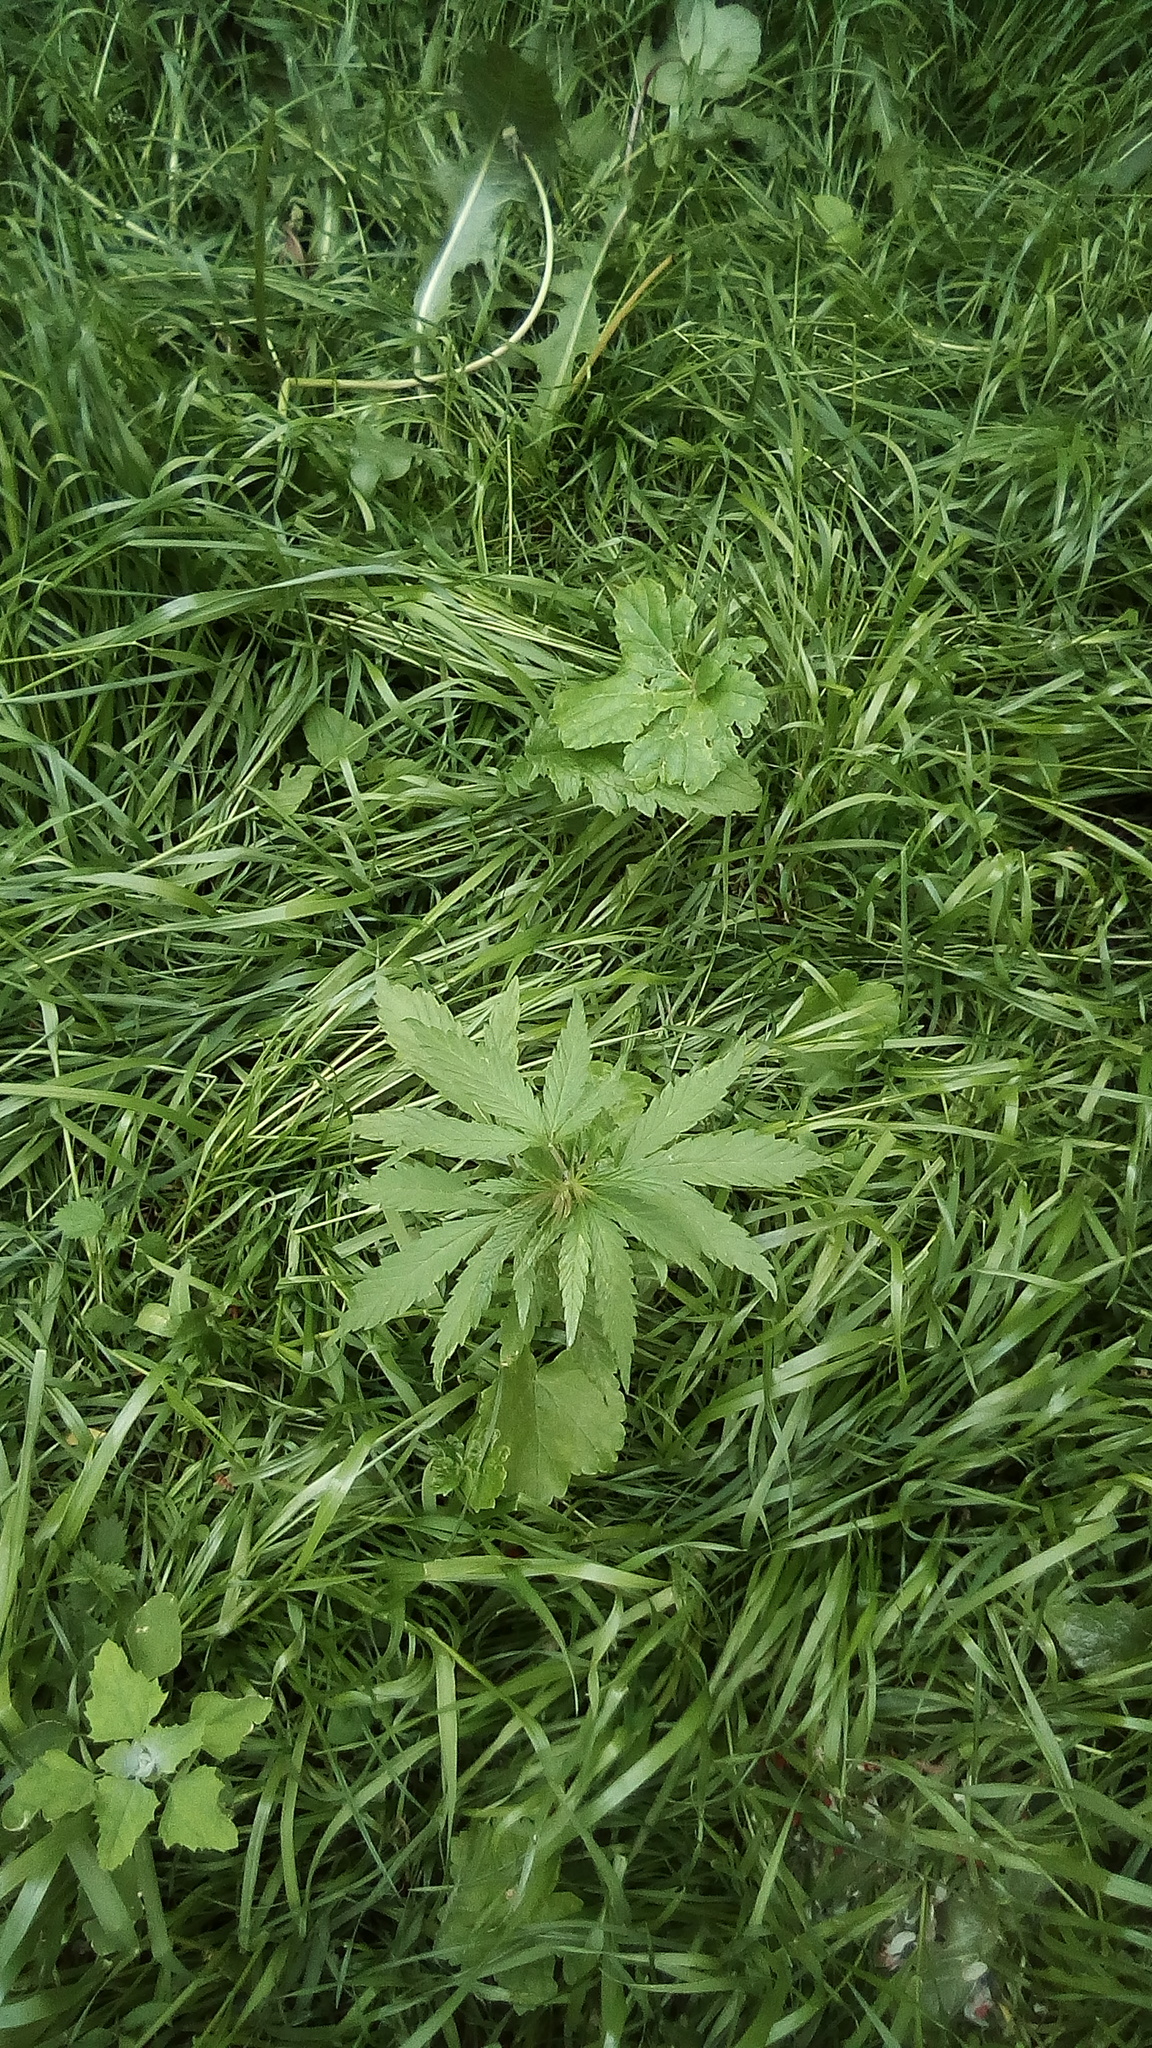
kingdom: Plantae
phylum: Tracheophyta
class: Magnoliopsida
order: Rosales
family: Cannabaceae
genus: Cannabis
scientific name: Cannabis sativa
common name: Hemp
